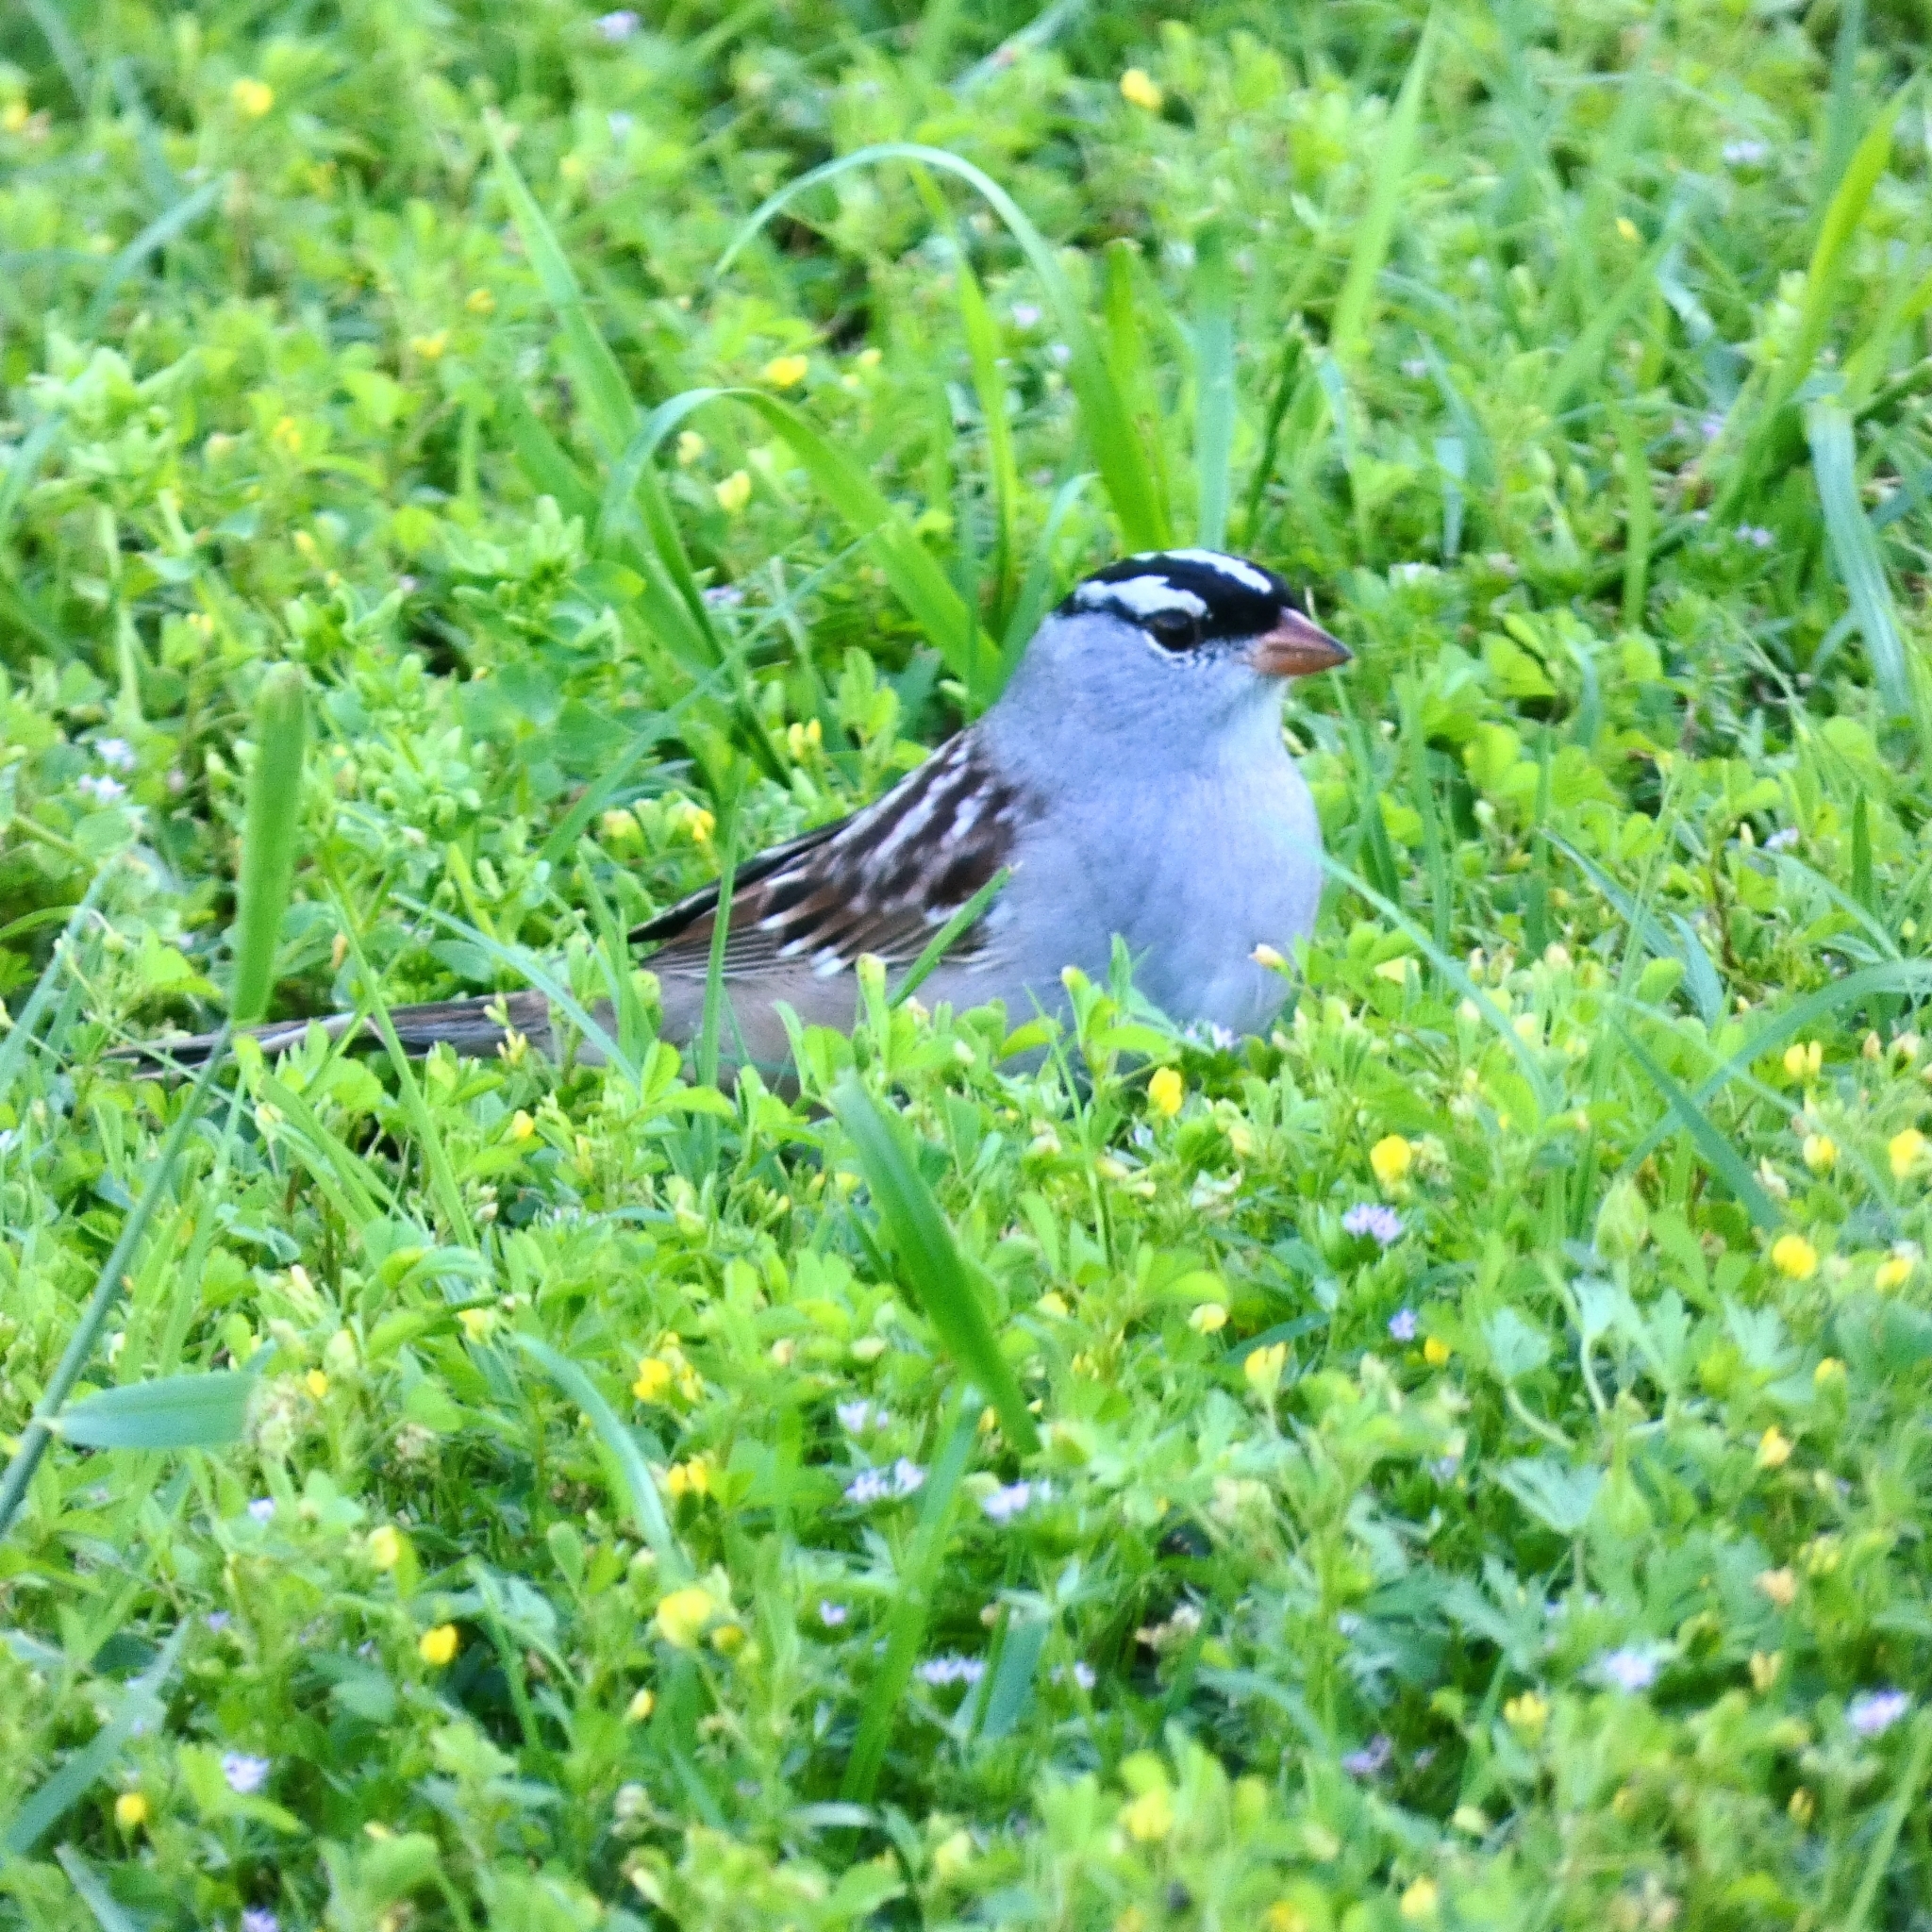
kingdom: Animalia
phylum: Chordata
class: Aves
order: Passeriformes
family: Passerellidae
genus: Zonotrichia
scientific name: Zonotrichia leucophrys
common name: White-crowned sparrow
